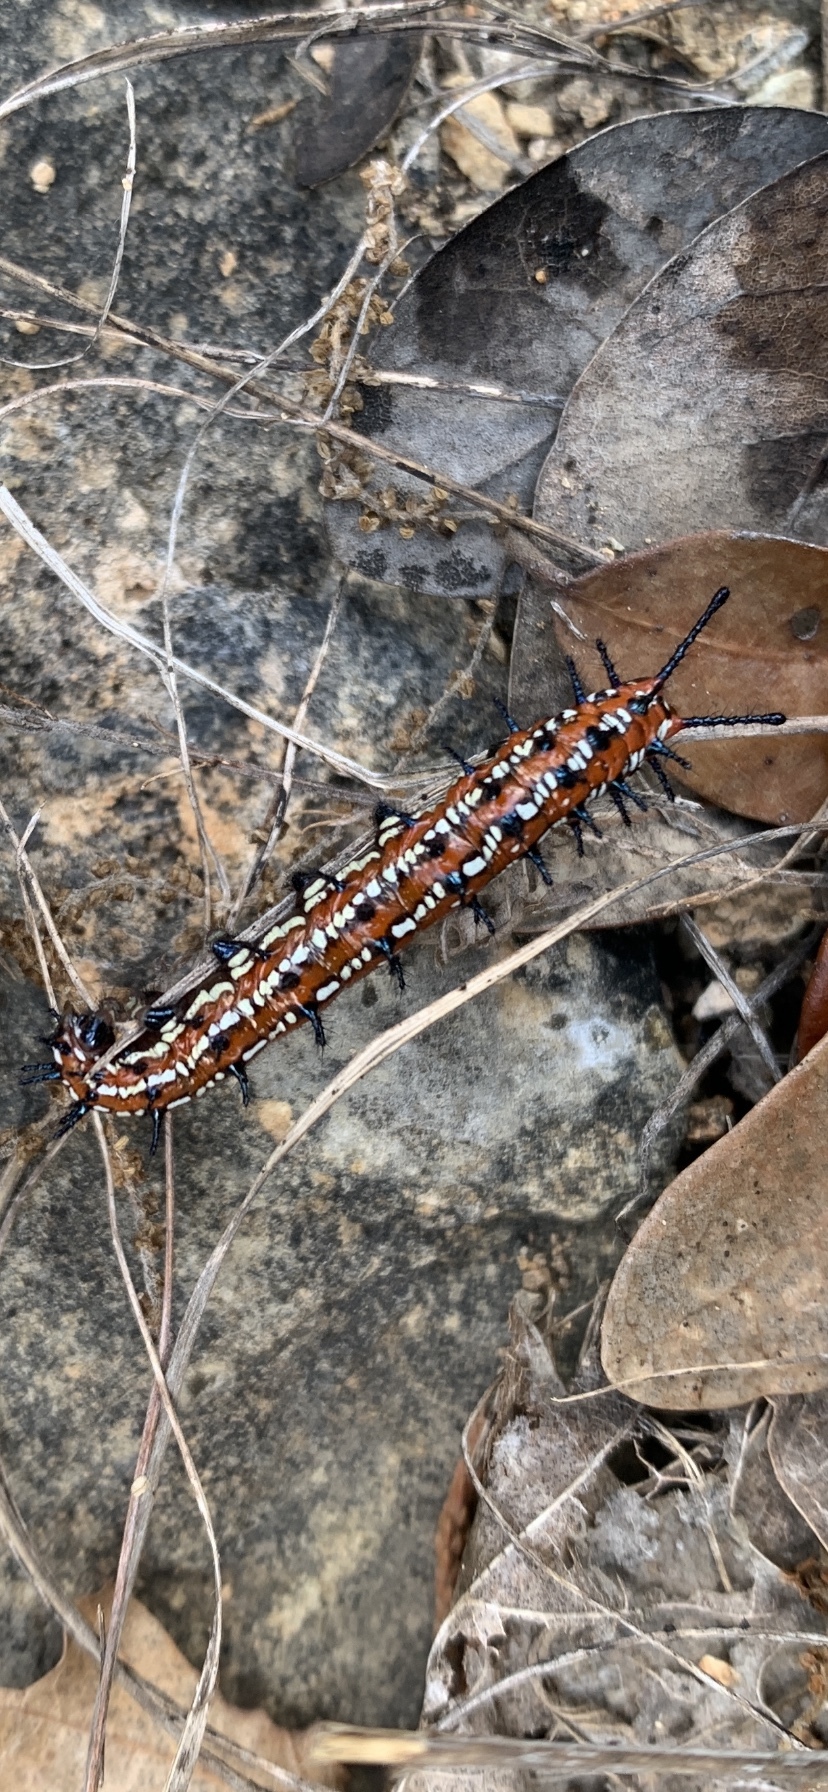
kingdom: Animalia
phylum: Arthropoda
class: Insecta
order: Lepidoptera
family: Nymphalidae
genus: Euptoieta
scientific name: Euptoieta claudia
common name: Variegated fritillary
